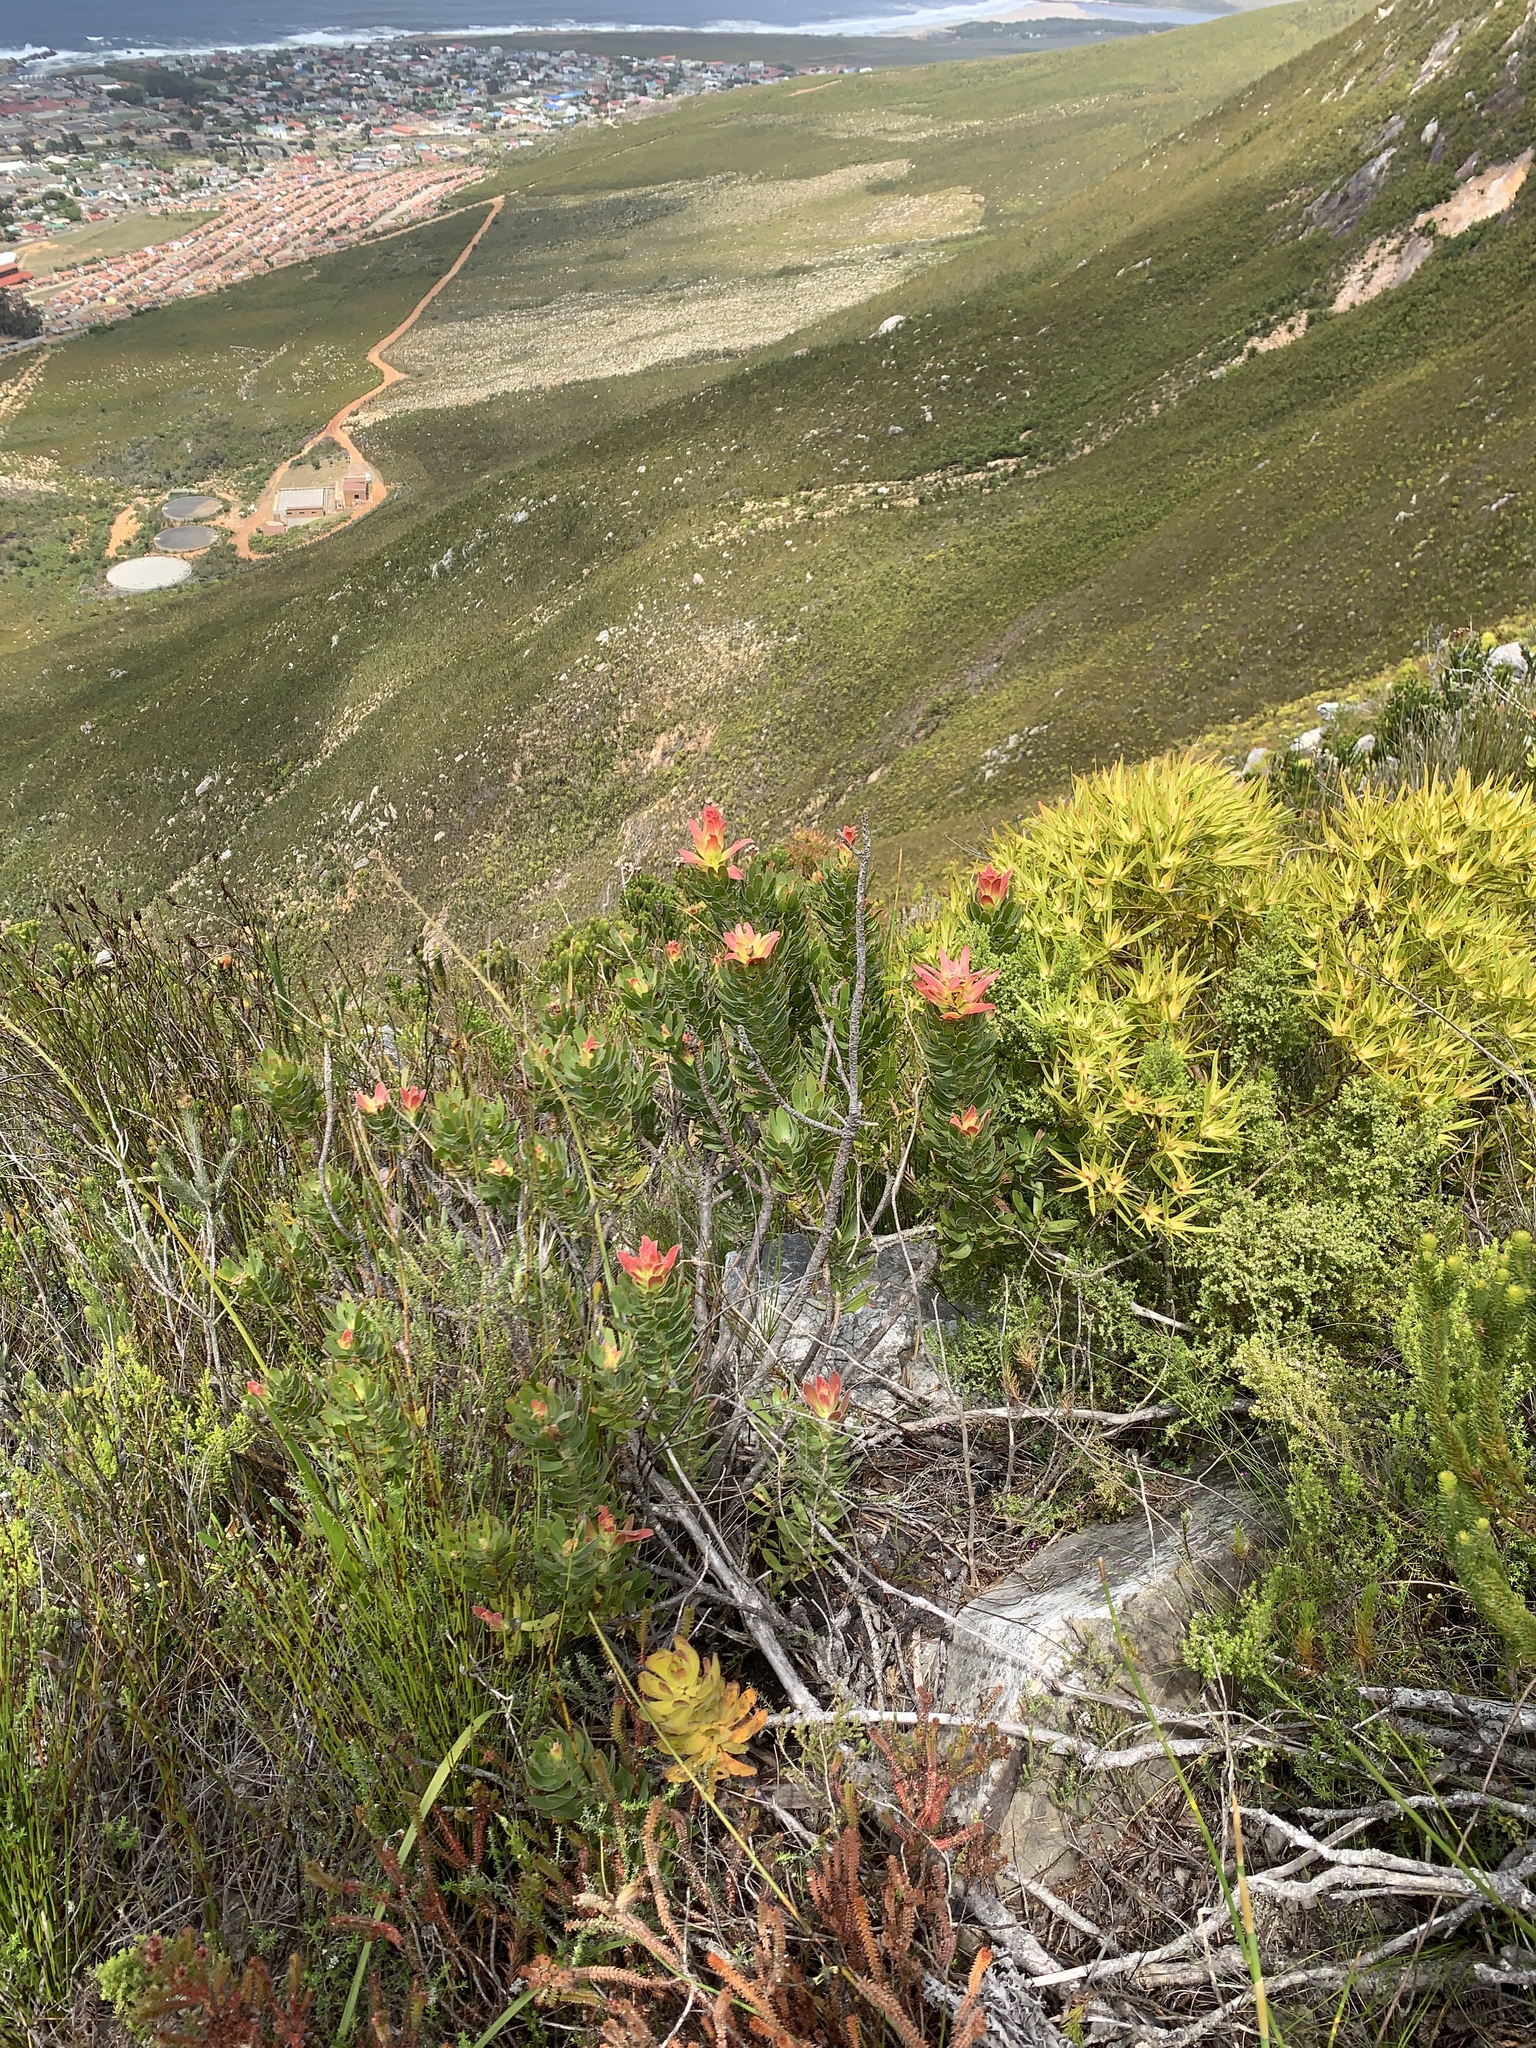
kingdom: Plantae
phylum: Tracheophyta
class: Magnoliopsida
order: Proteales
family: Proteaceae
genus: Mimetes
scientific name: Mimetes cucullatus
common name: Common pagoda
